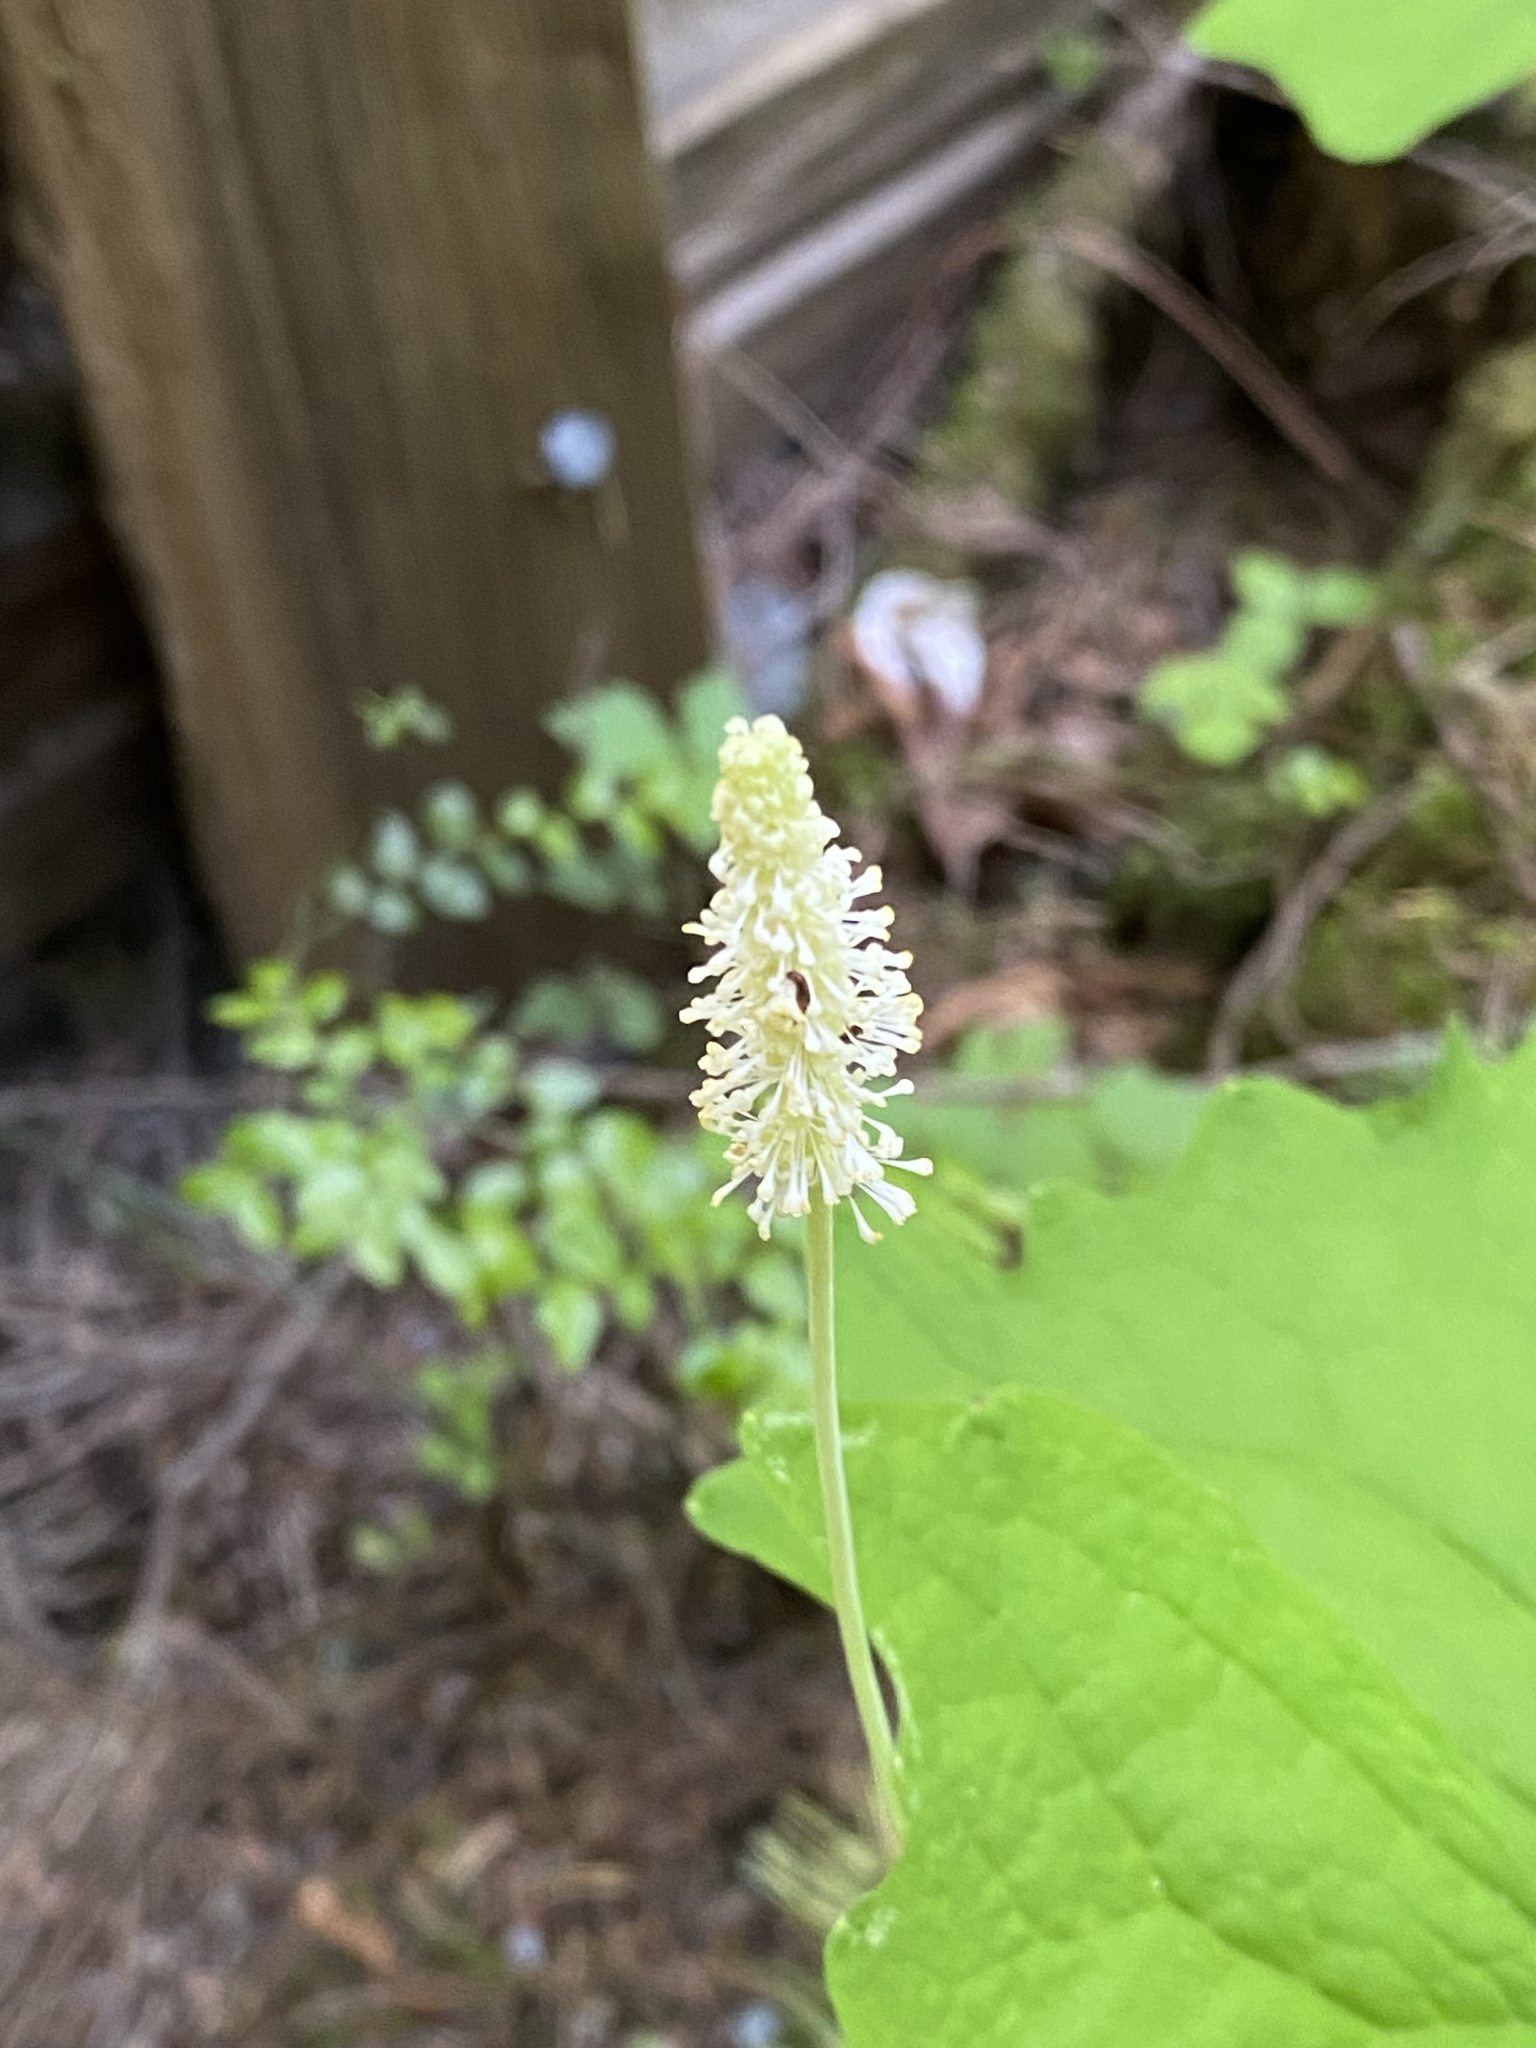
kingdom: Plantae
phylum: Tracheophyta
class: Magnoliopsida
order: Ranunculales
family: Berberidaceae
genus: Achlys
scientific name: Achlys triphylla
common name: Vanilla-leaf
